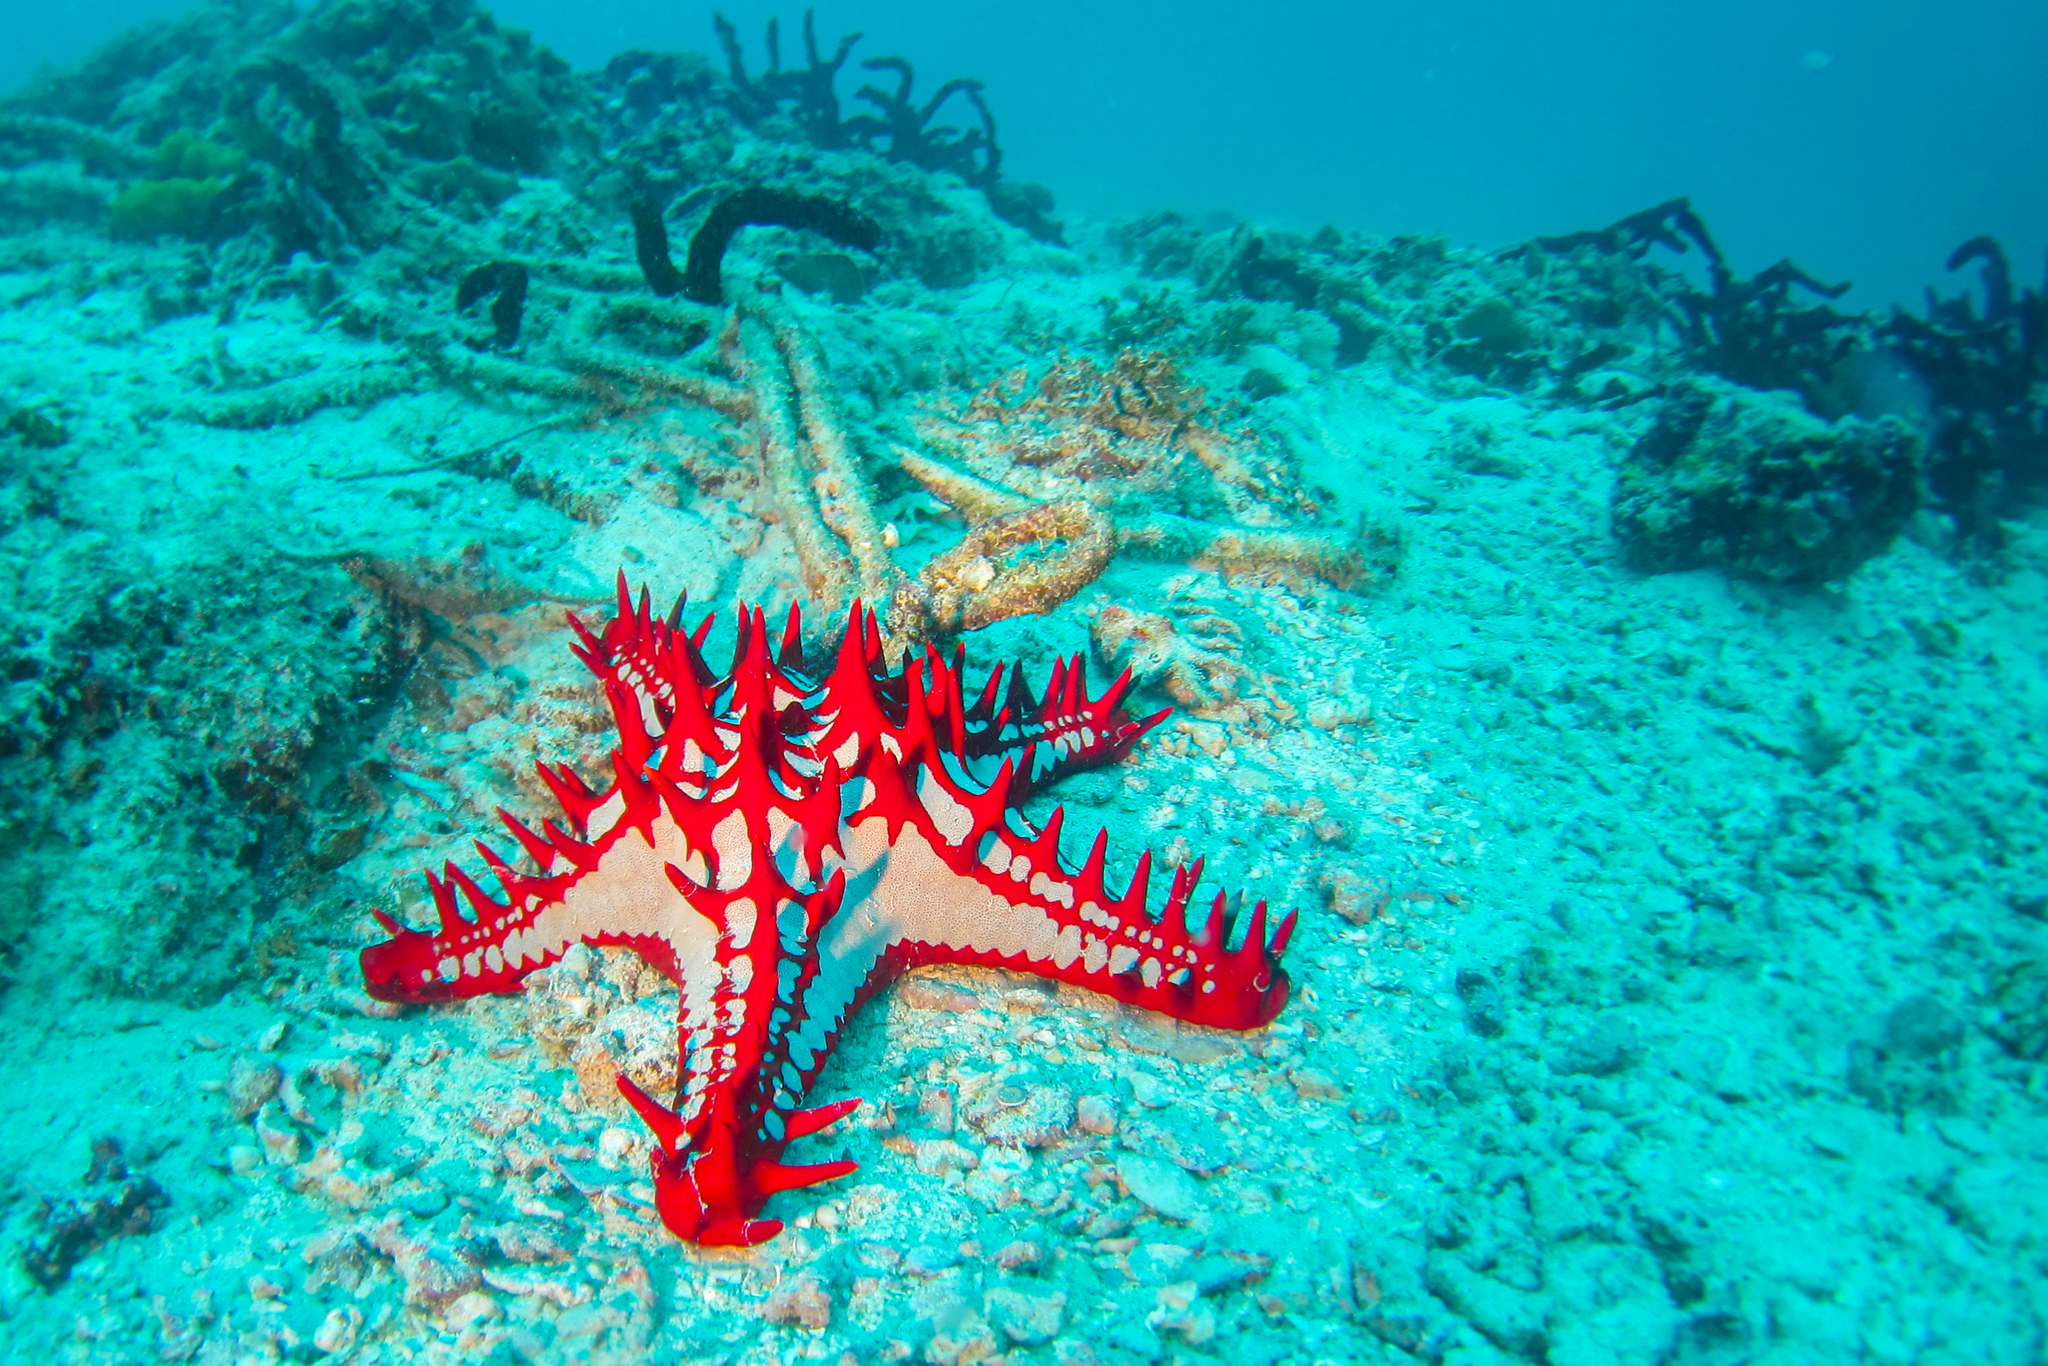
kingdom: Animalia
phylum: Echinodermata
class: Asteroidea
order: Valvatida
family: Oreasteridae
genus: Protoreaster
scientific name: Protoreaster lincki
